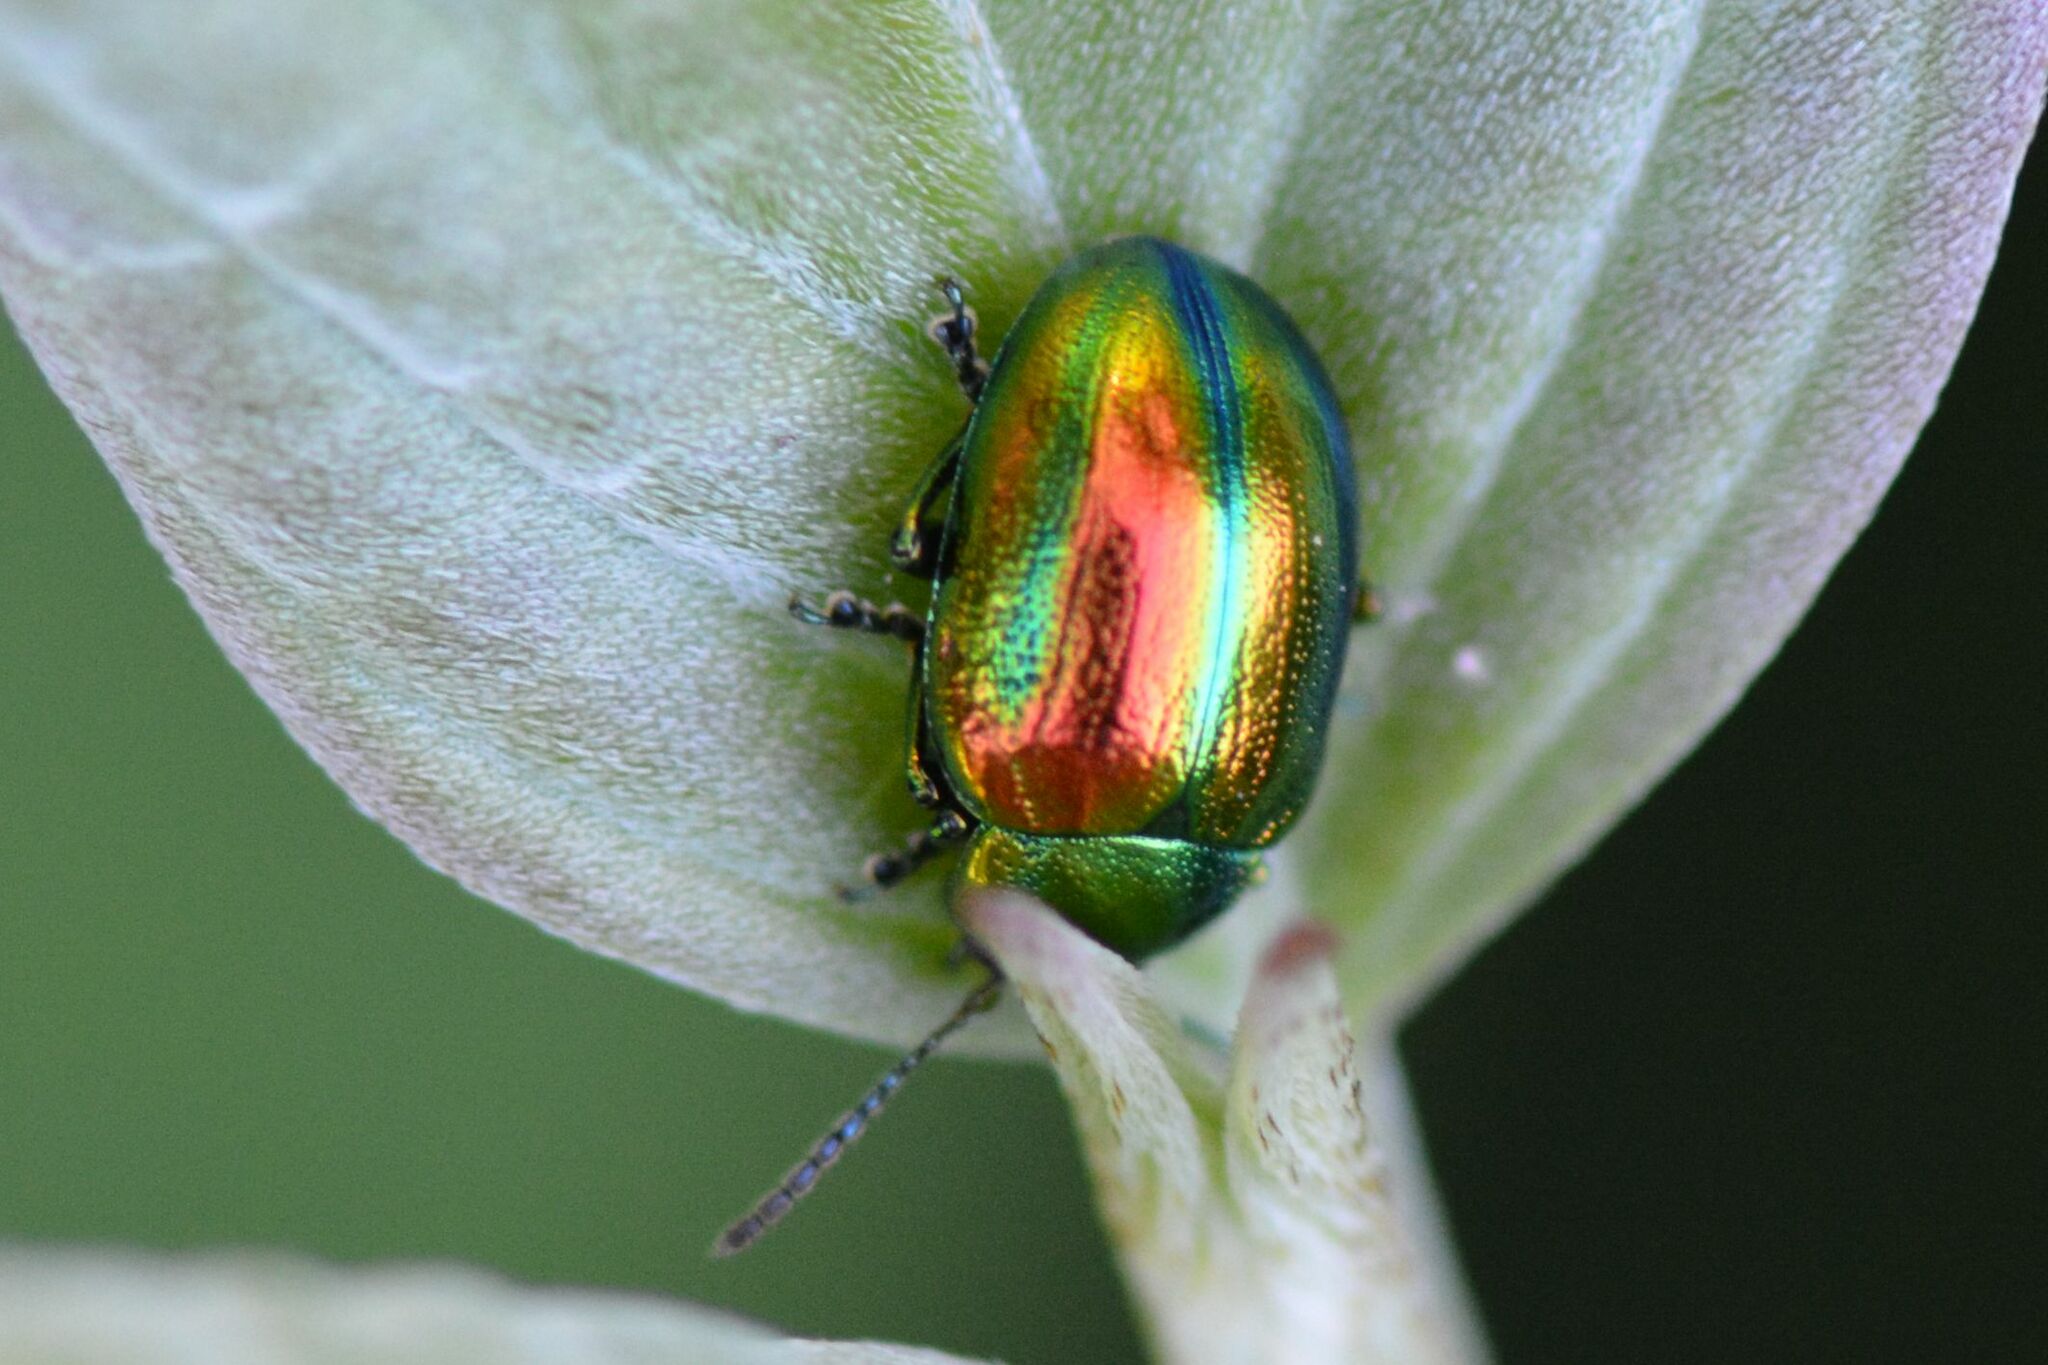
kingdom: Animalia
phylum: Arthropoda
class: Insecta
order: Coleoptera
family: Chrysomelidae
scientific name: Chrysomelidae
